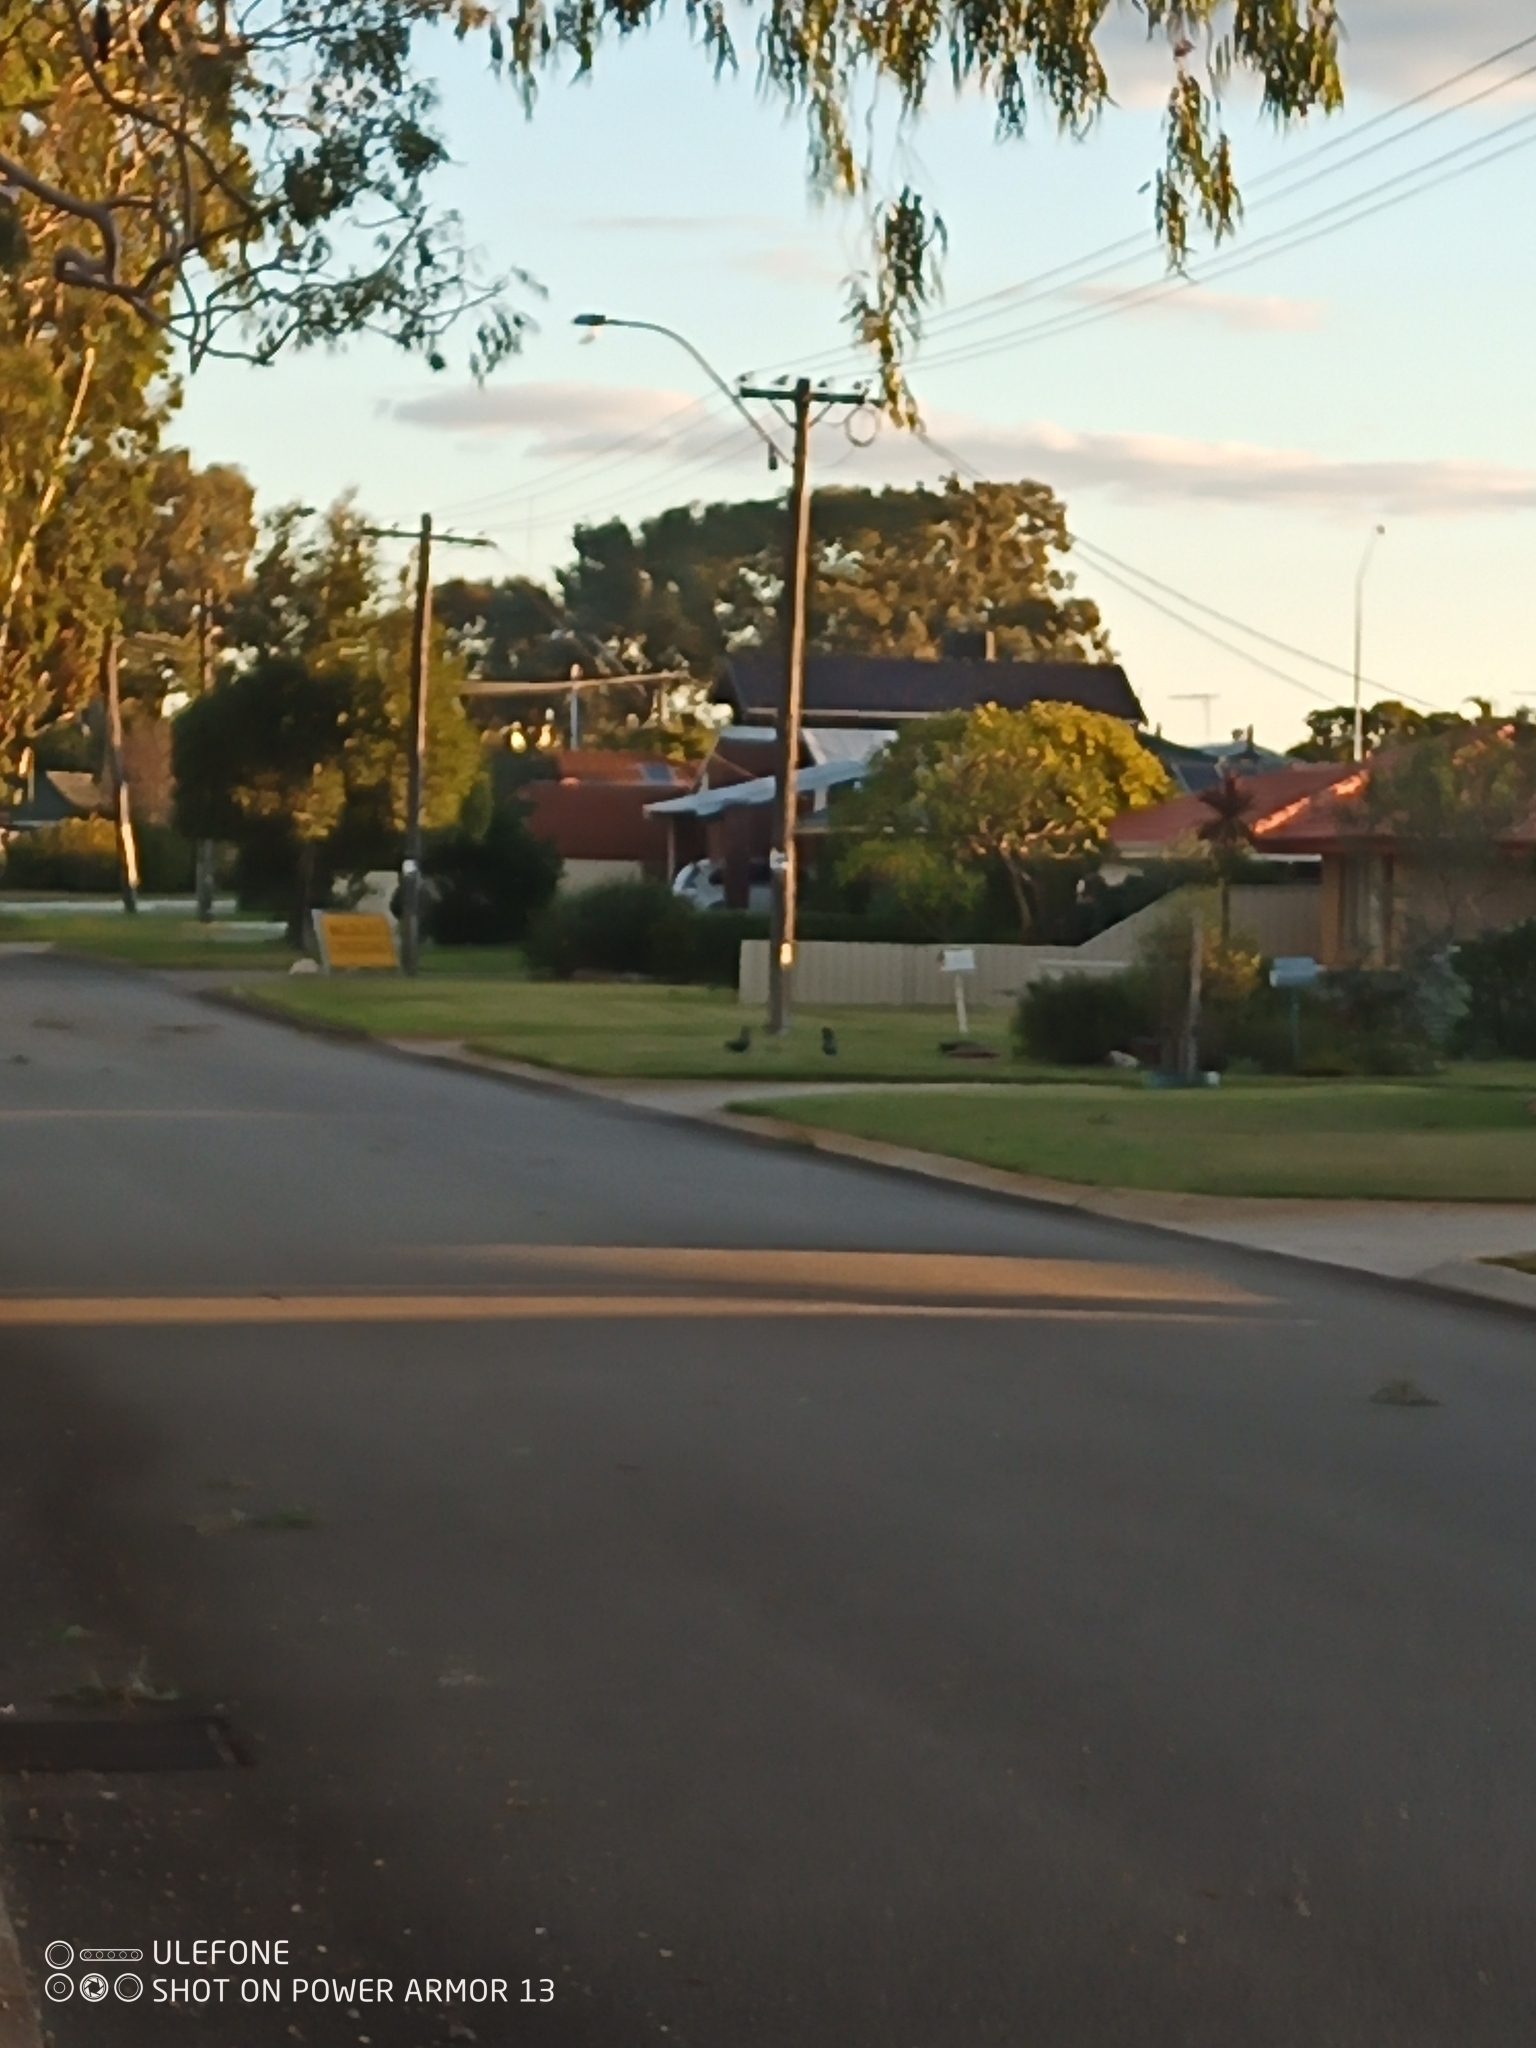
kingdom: Animalia
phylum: Chordata
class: Aves
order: Psittaciformes
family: Psittacidae
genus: Calyptorhynchus
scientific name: Calyptorhynchus banksii
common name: Red-tailed black cockatoo
